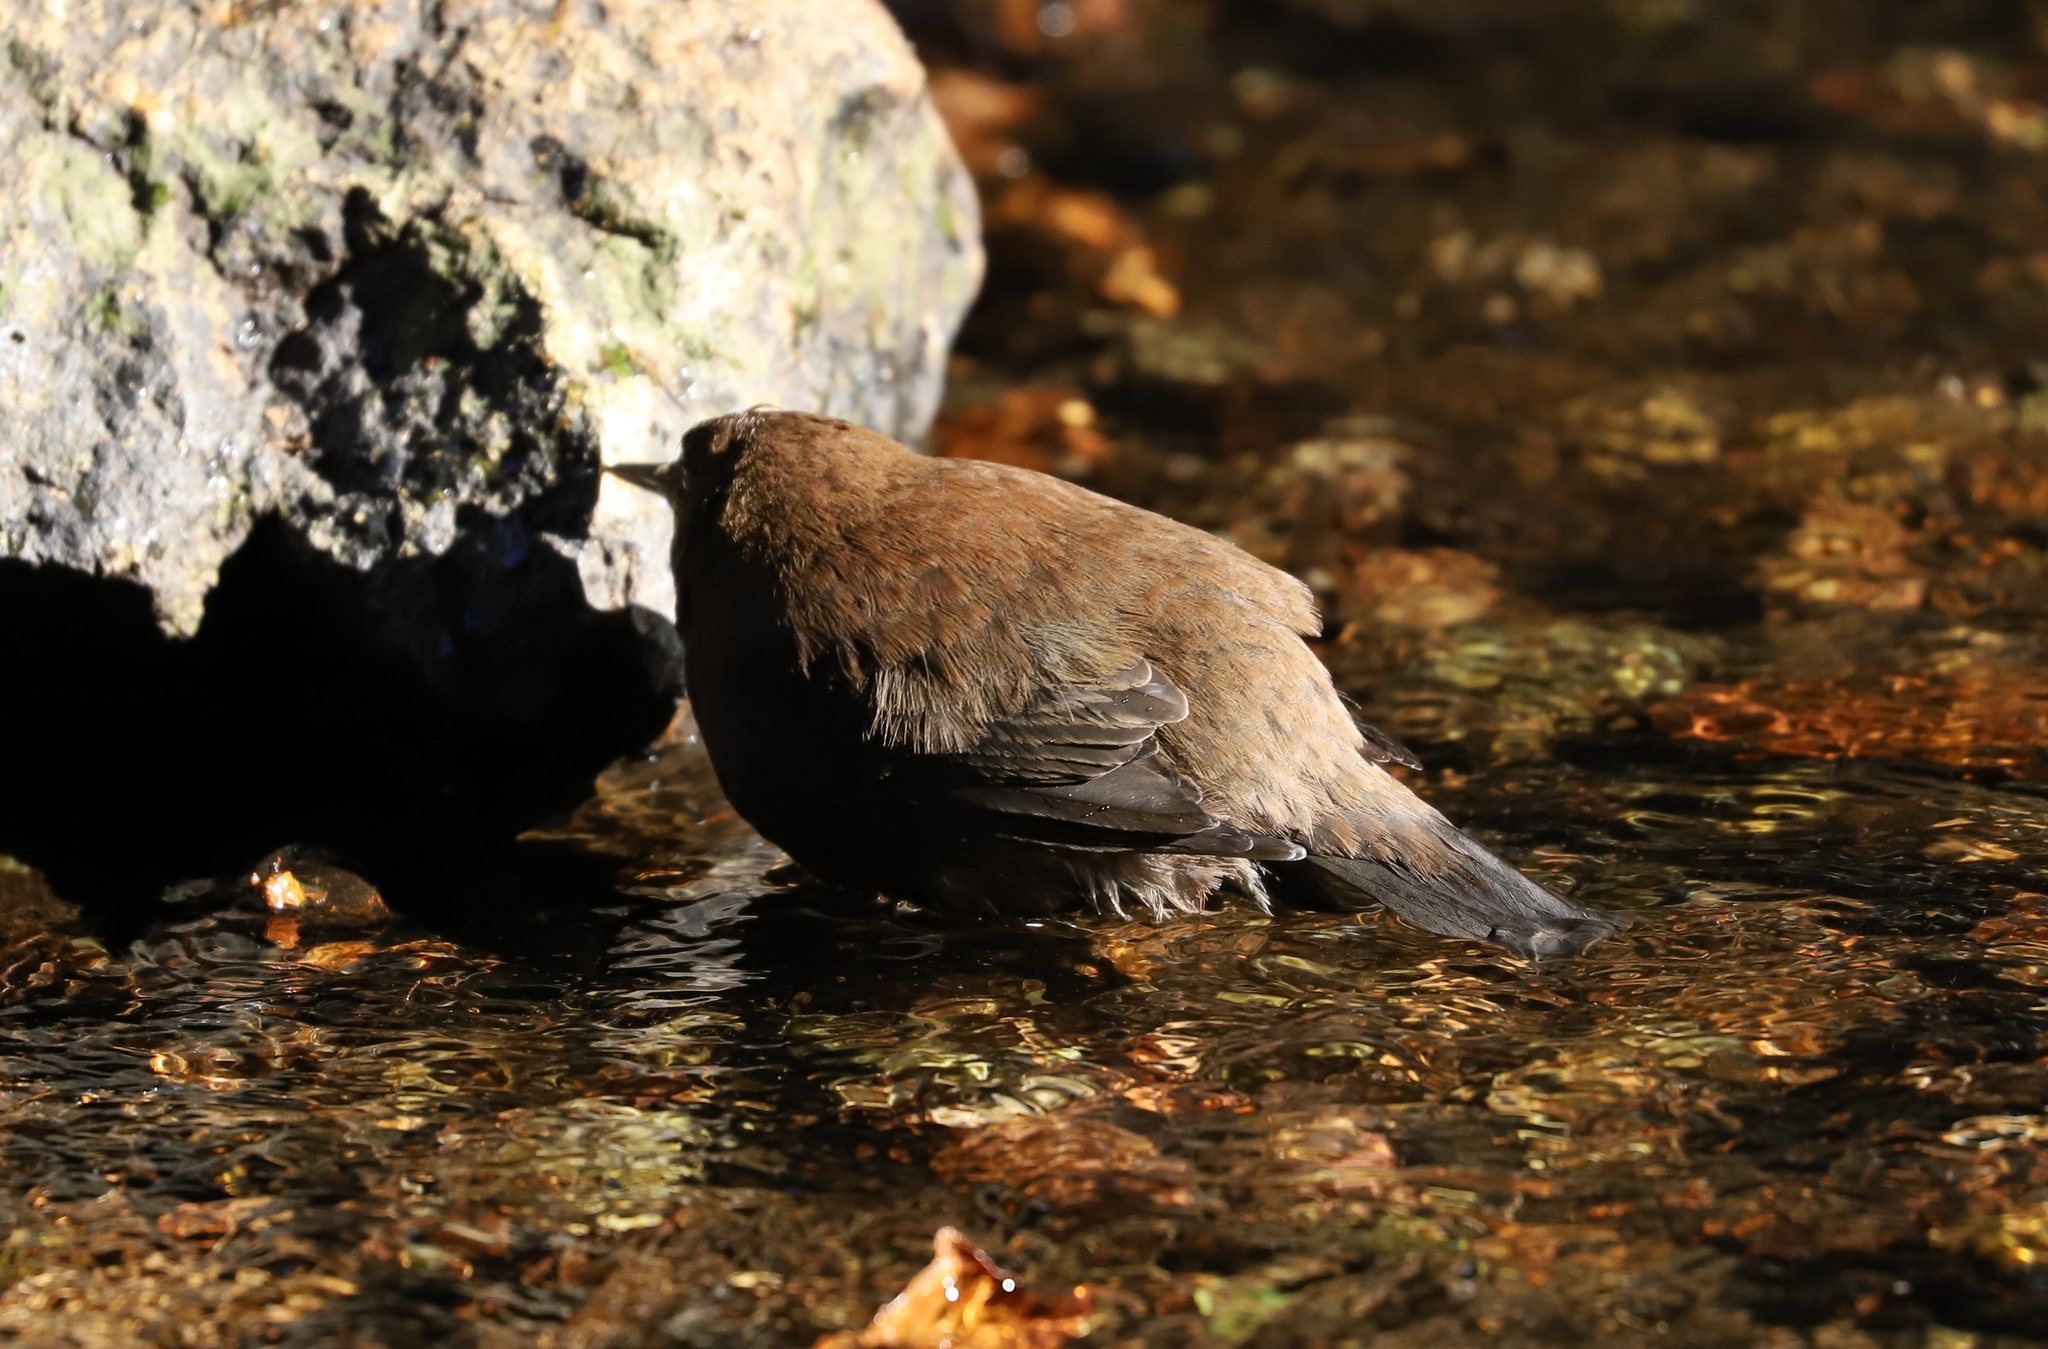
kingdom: Animalia
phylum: Chordata
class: Aves
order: Passeriformes
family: Cinclidae
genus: Cinclus
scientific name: Cinclus pallasii
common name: Brown dipper
